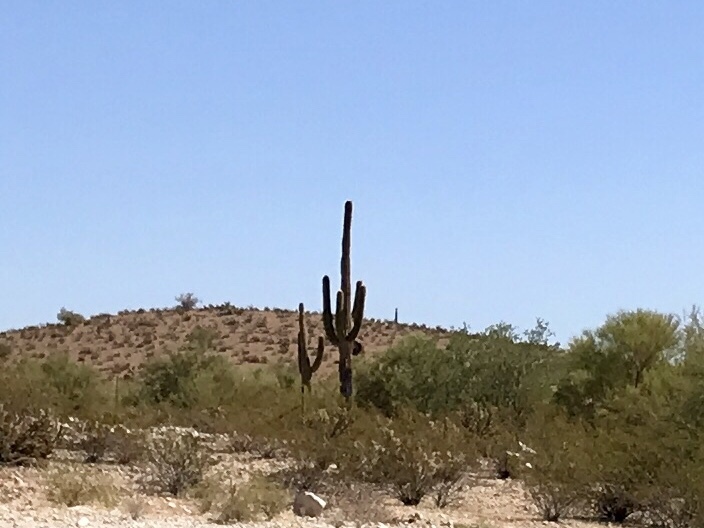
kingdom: Plantae
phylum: Tracheophyta
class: Magnoliopsida
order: Caryophyllales
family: Cactaceae
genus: Carnegiea
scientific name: Carnegiea gigantea
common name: Saguaro
